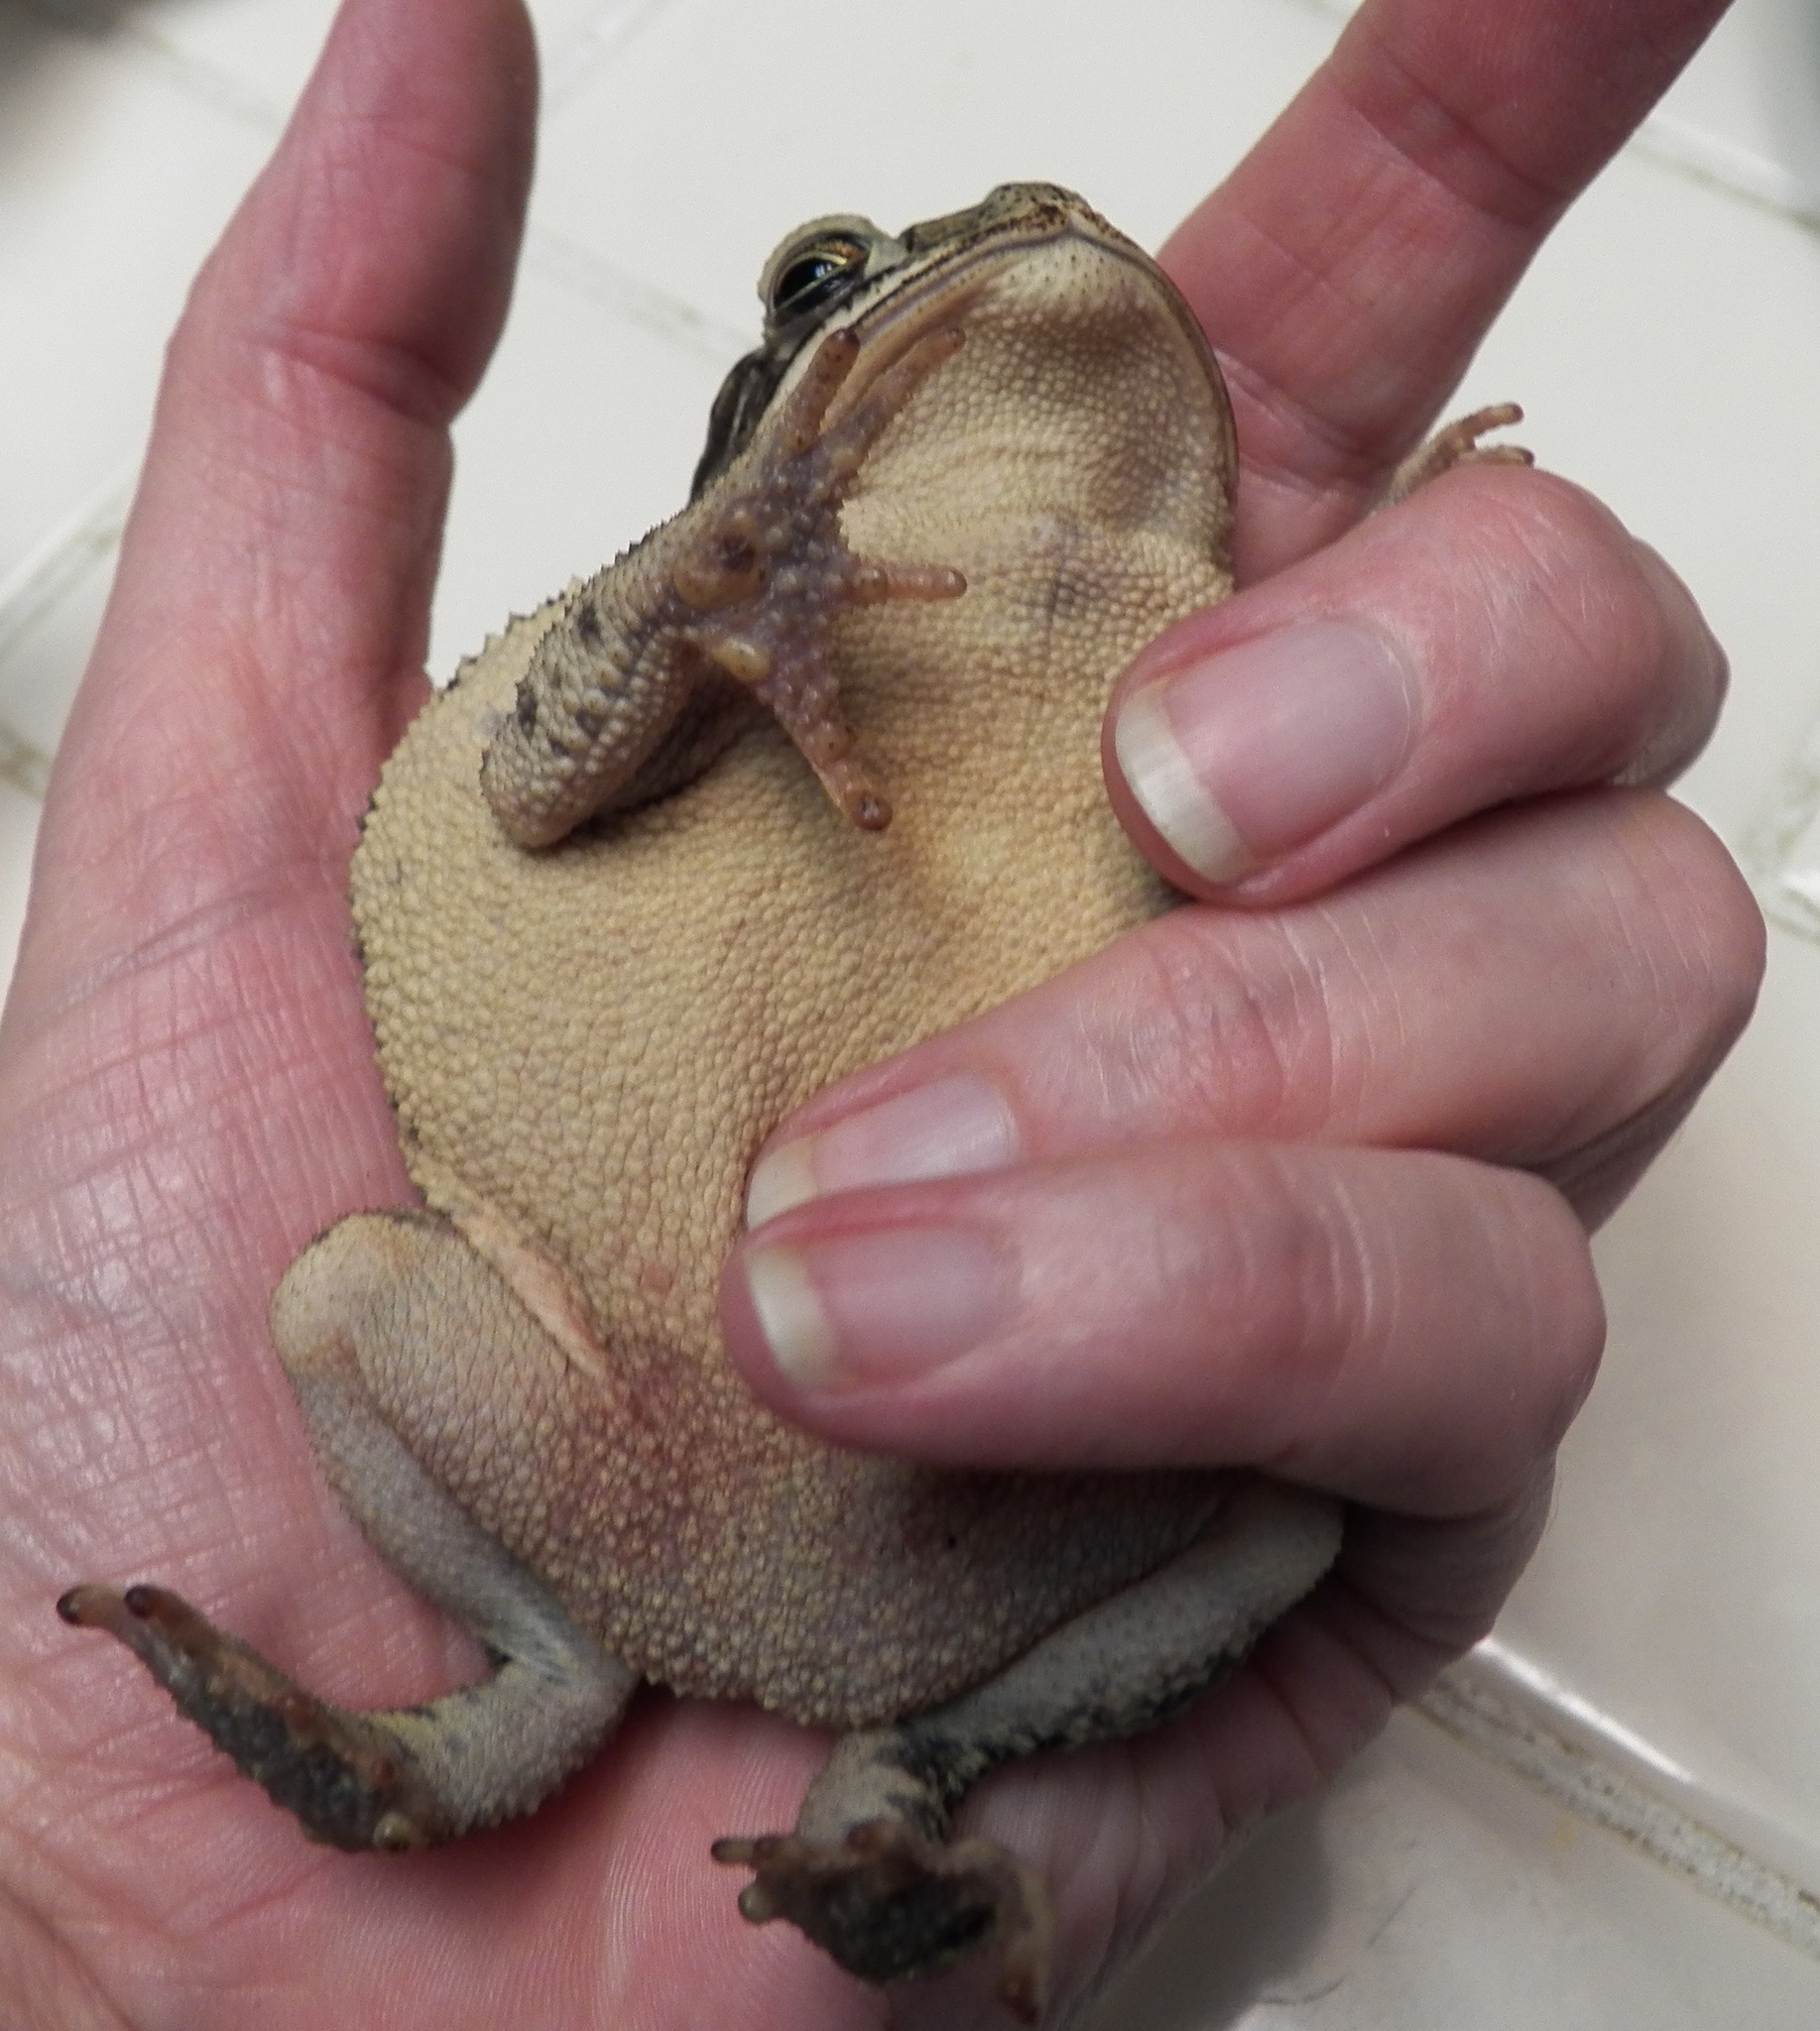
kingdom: Animalia
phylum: Chordata
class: Amphibia
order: Anura
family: Bufonidae
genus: Incilius
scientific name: Incilius nebulifer
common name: Gulf coast toad
